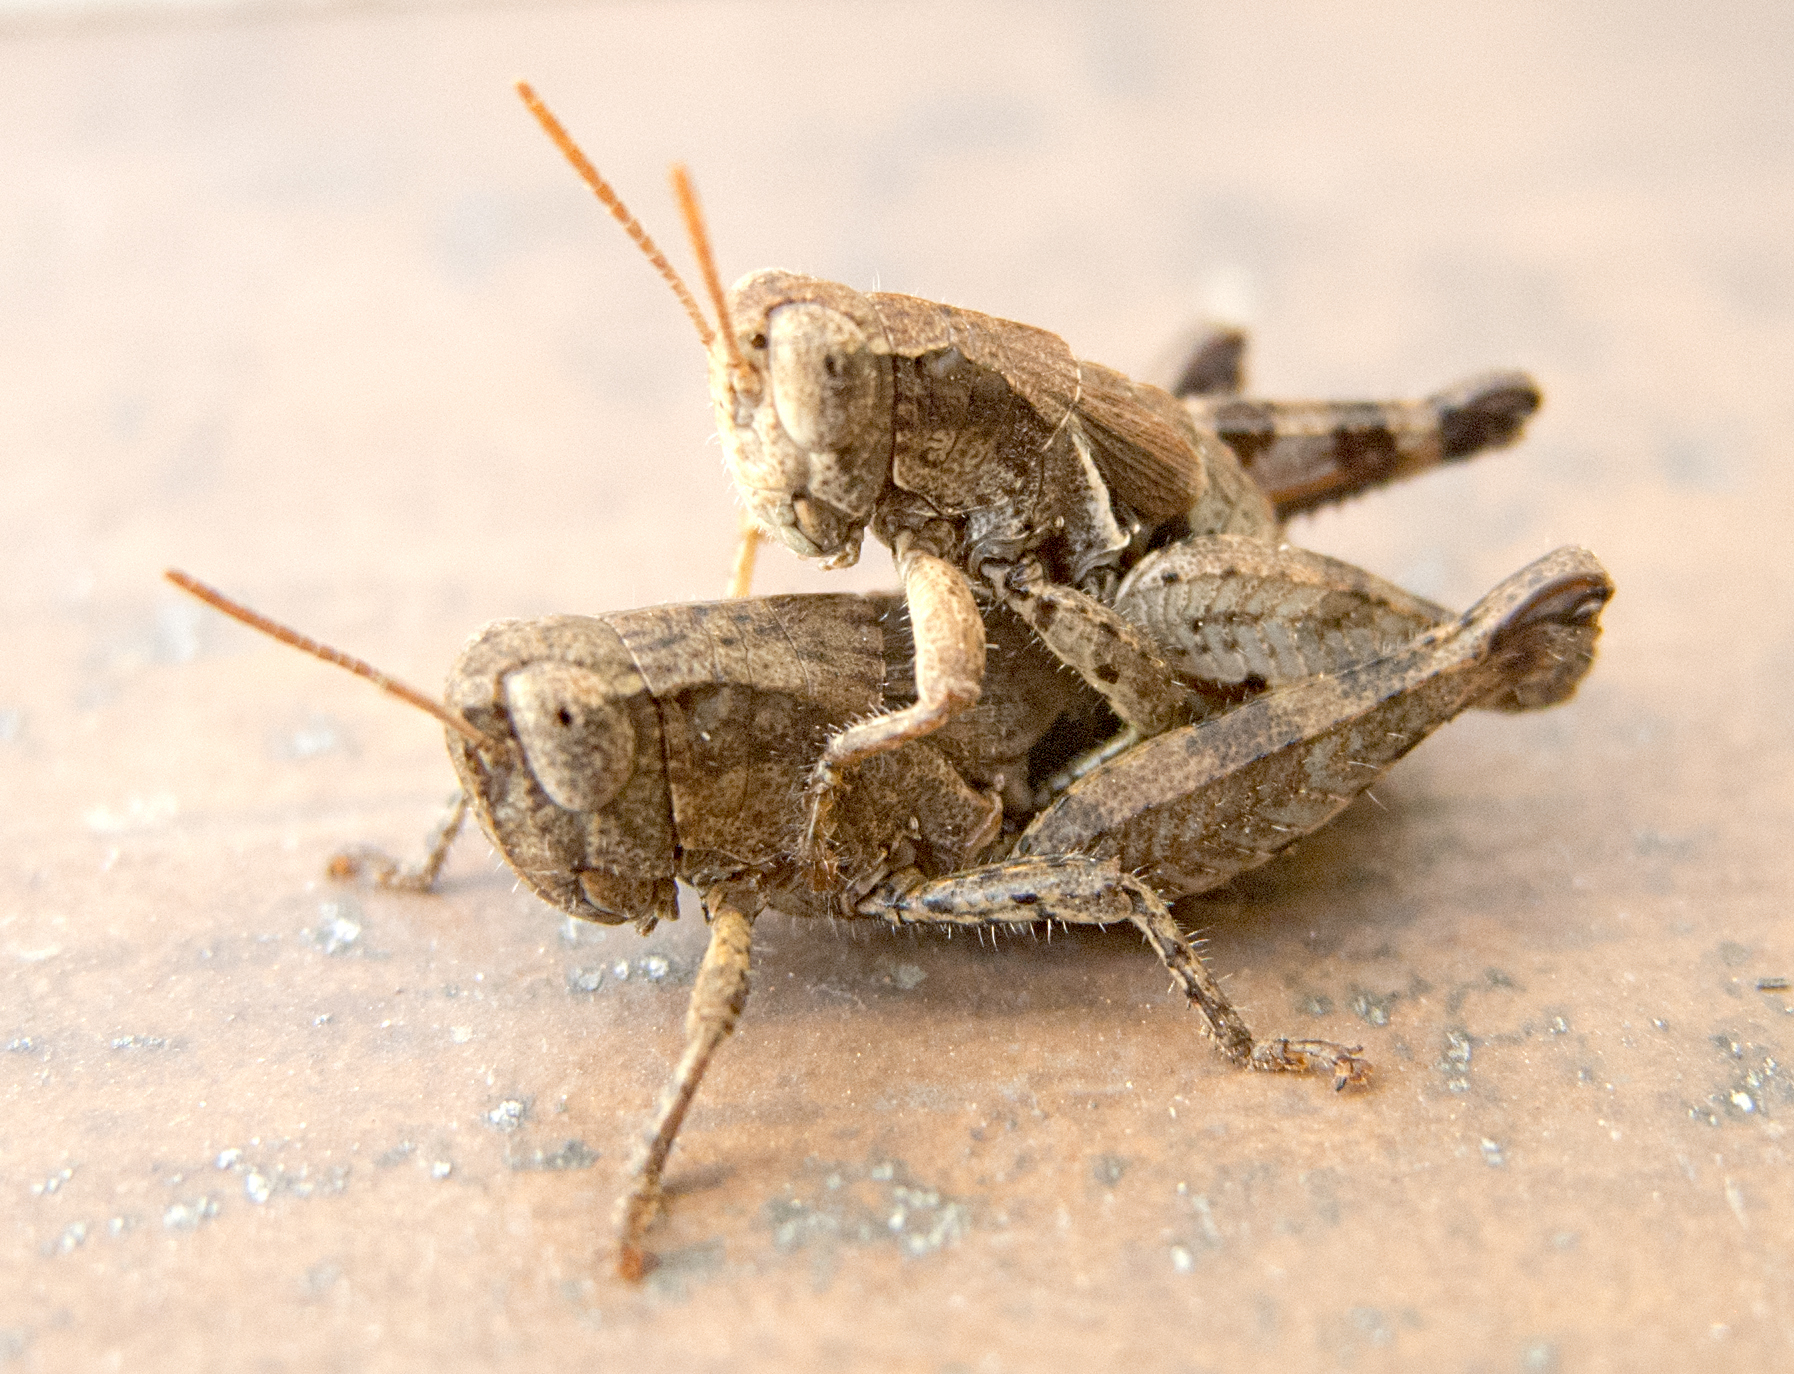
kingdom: Animalia
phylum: Arthropoda
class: Insecta
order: Orthoptera
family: Acrididae
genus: Pezotettix
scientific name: Pezotettix giornae
